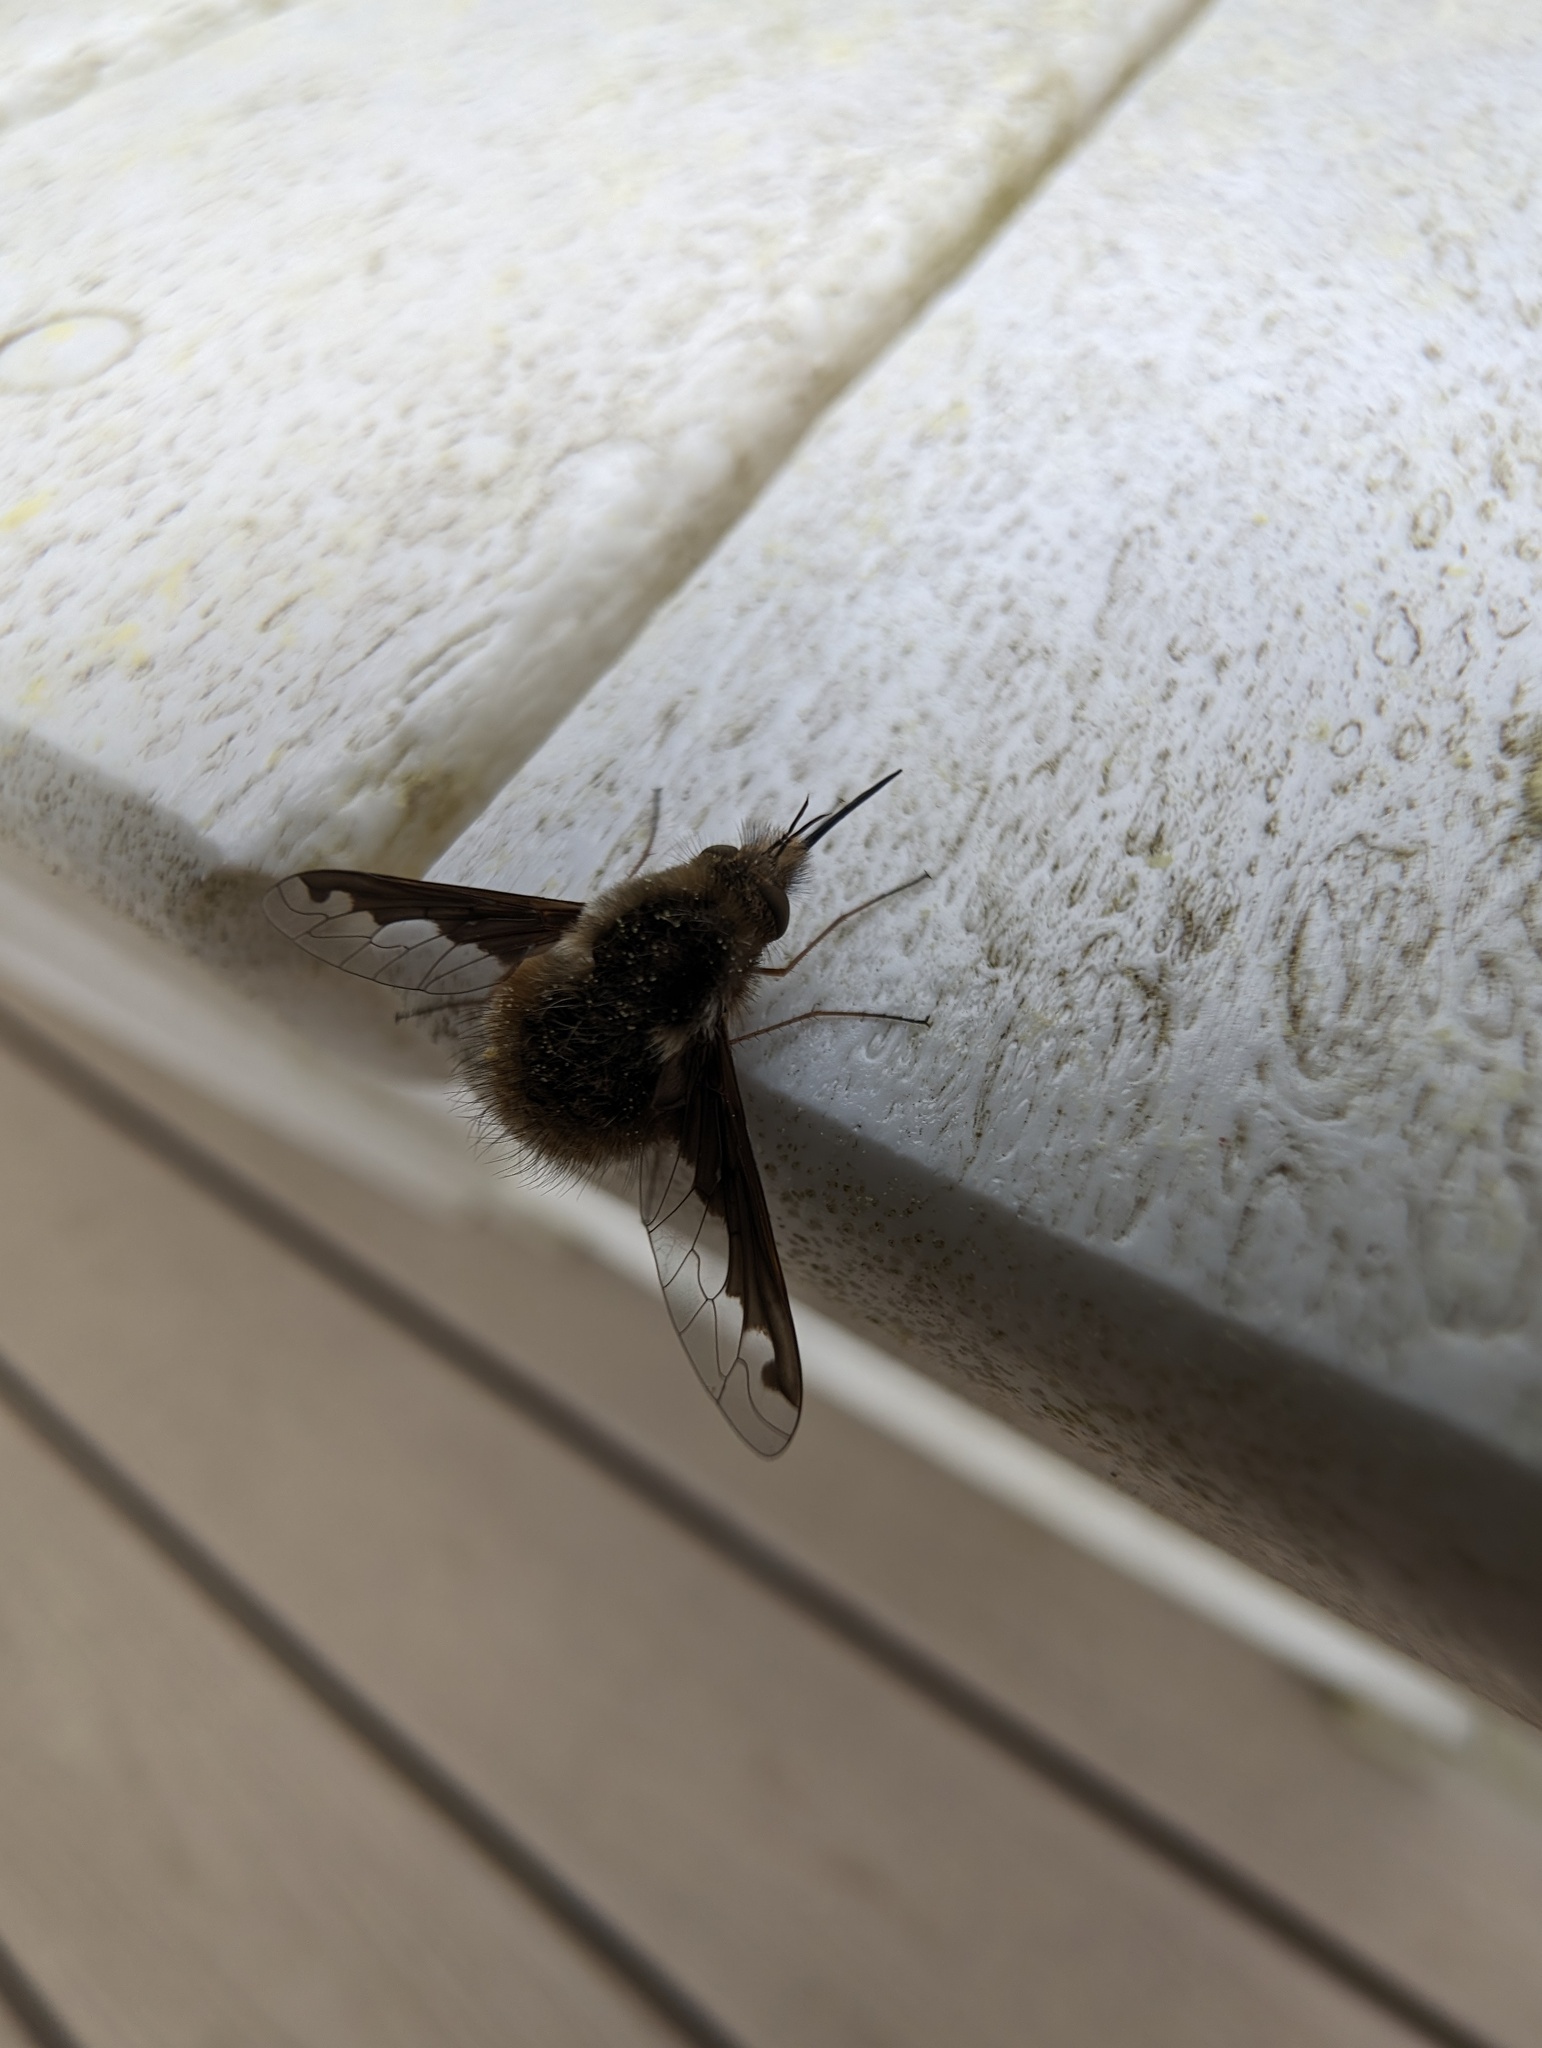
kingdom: Animalia
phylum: Arthropoda
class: Insecta
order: Diptera
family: Bombyliidae
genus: Bombylius
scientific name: Bombylius major
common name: Bee fly
